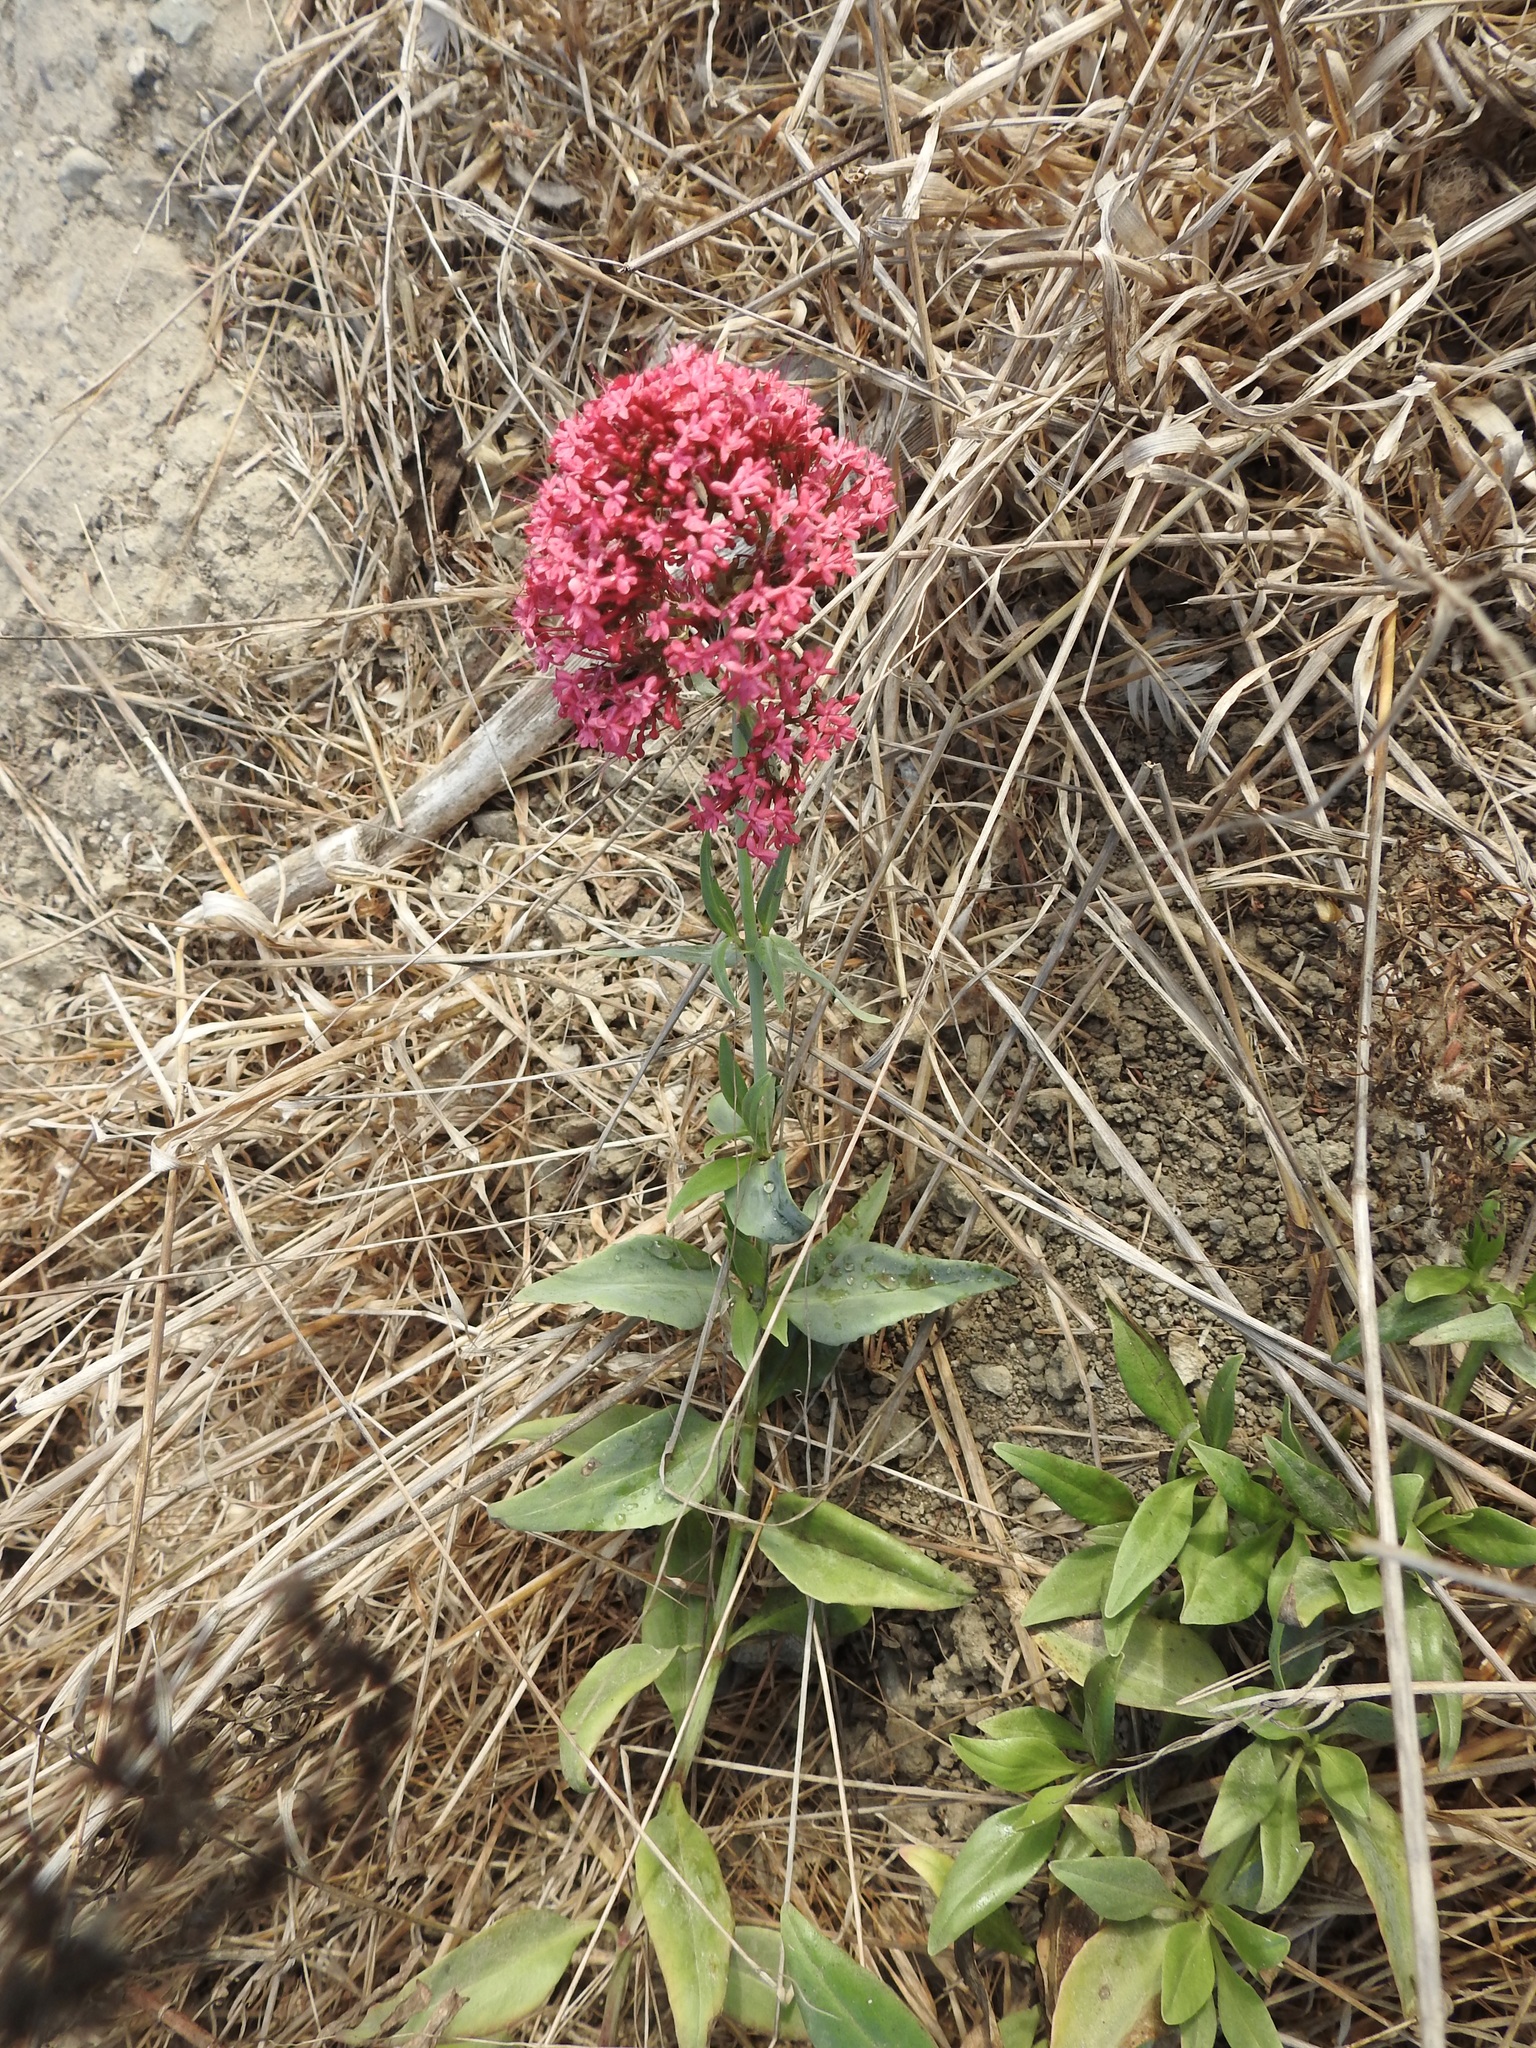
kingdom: Plantae
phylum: Tracheophyta
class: Magnoliopsida
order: Dipsacales
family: Caprifoliaceae
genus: Centranthus
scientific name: Centranthus ruber
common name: Red valerian
